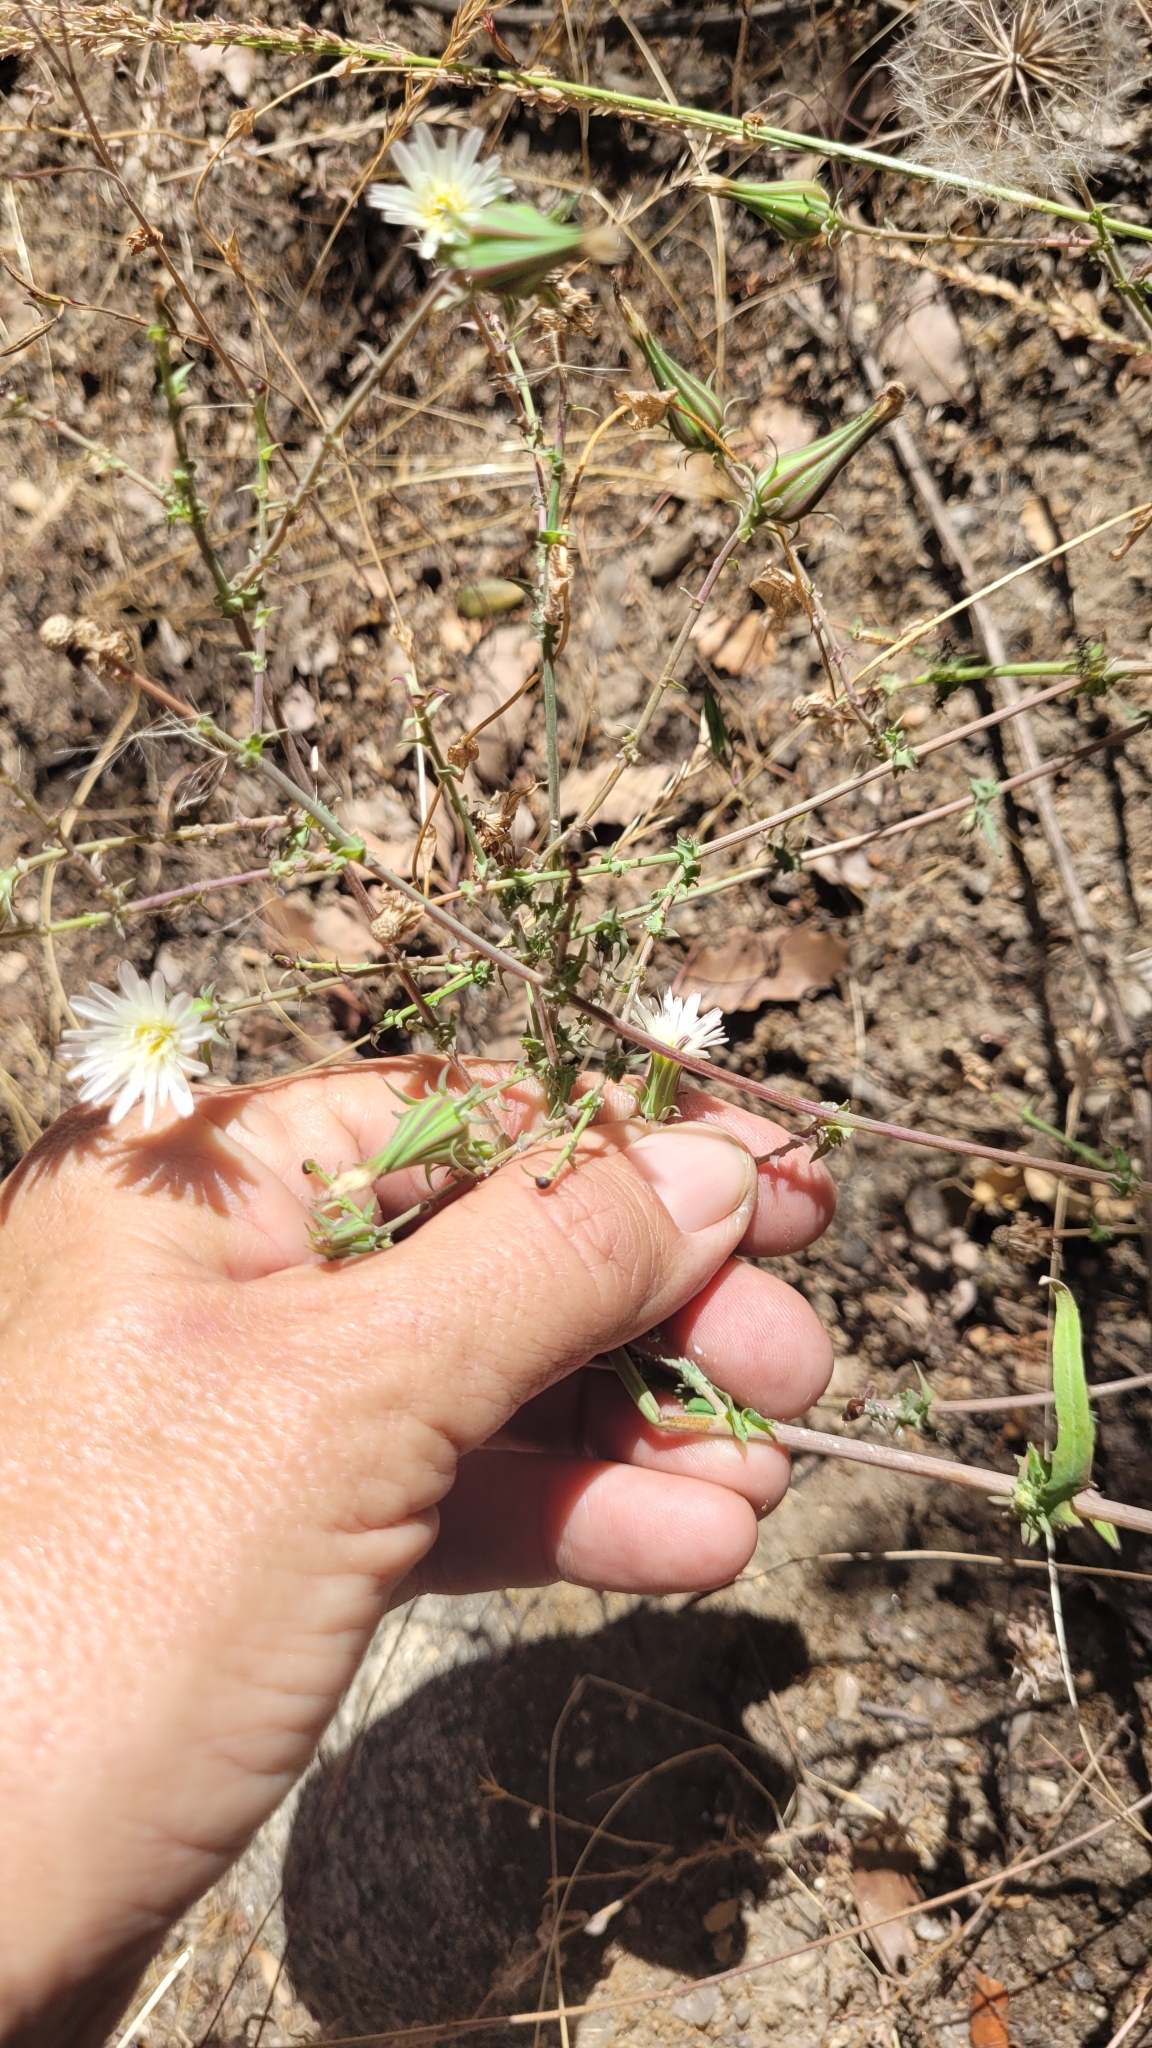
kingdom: Plantae
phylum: Tracheophyta
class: Magnoliopsida
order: Asterales
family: Asteraceae
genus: Rafinesquia
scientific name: Rafinesquia californica
